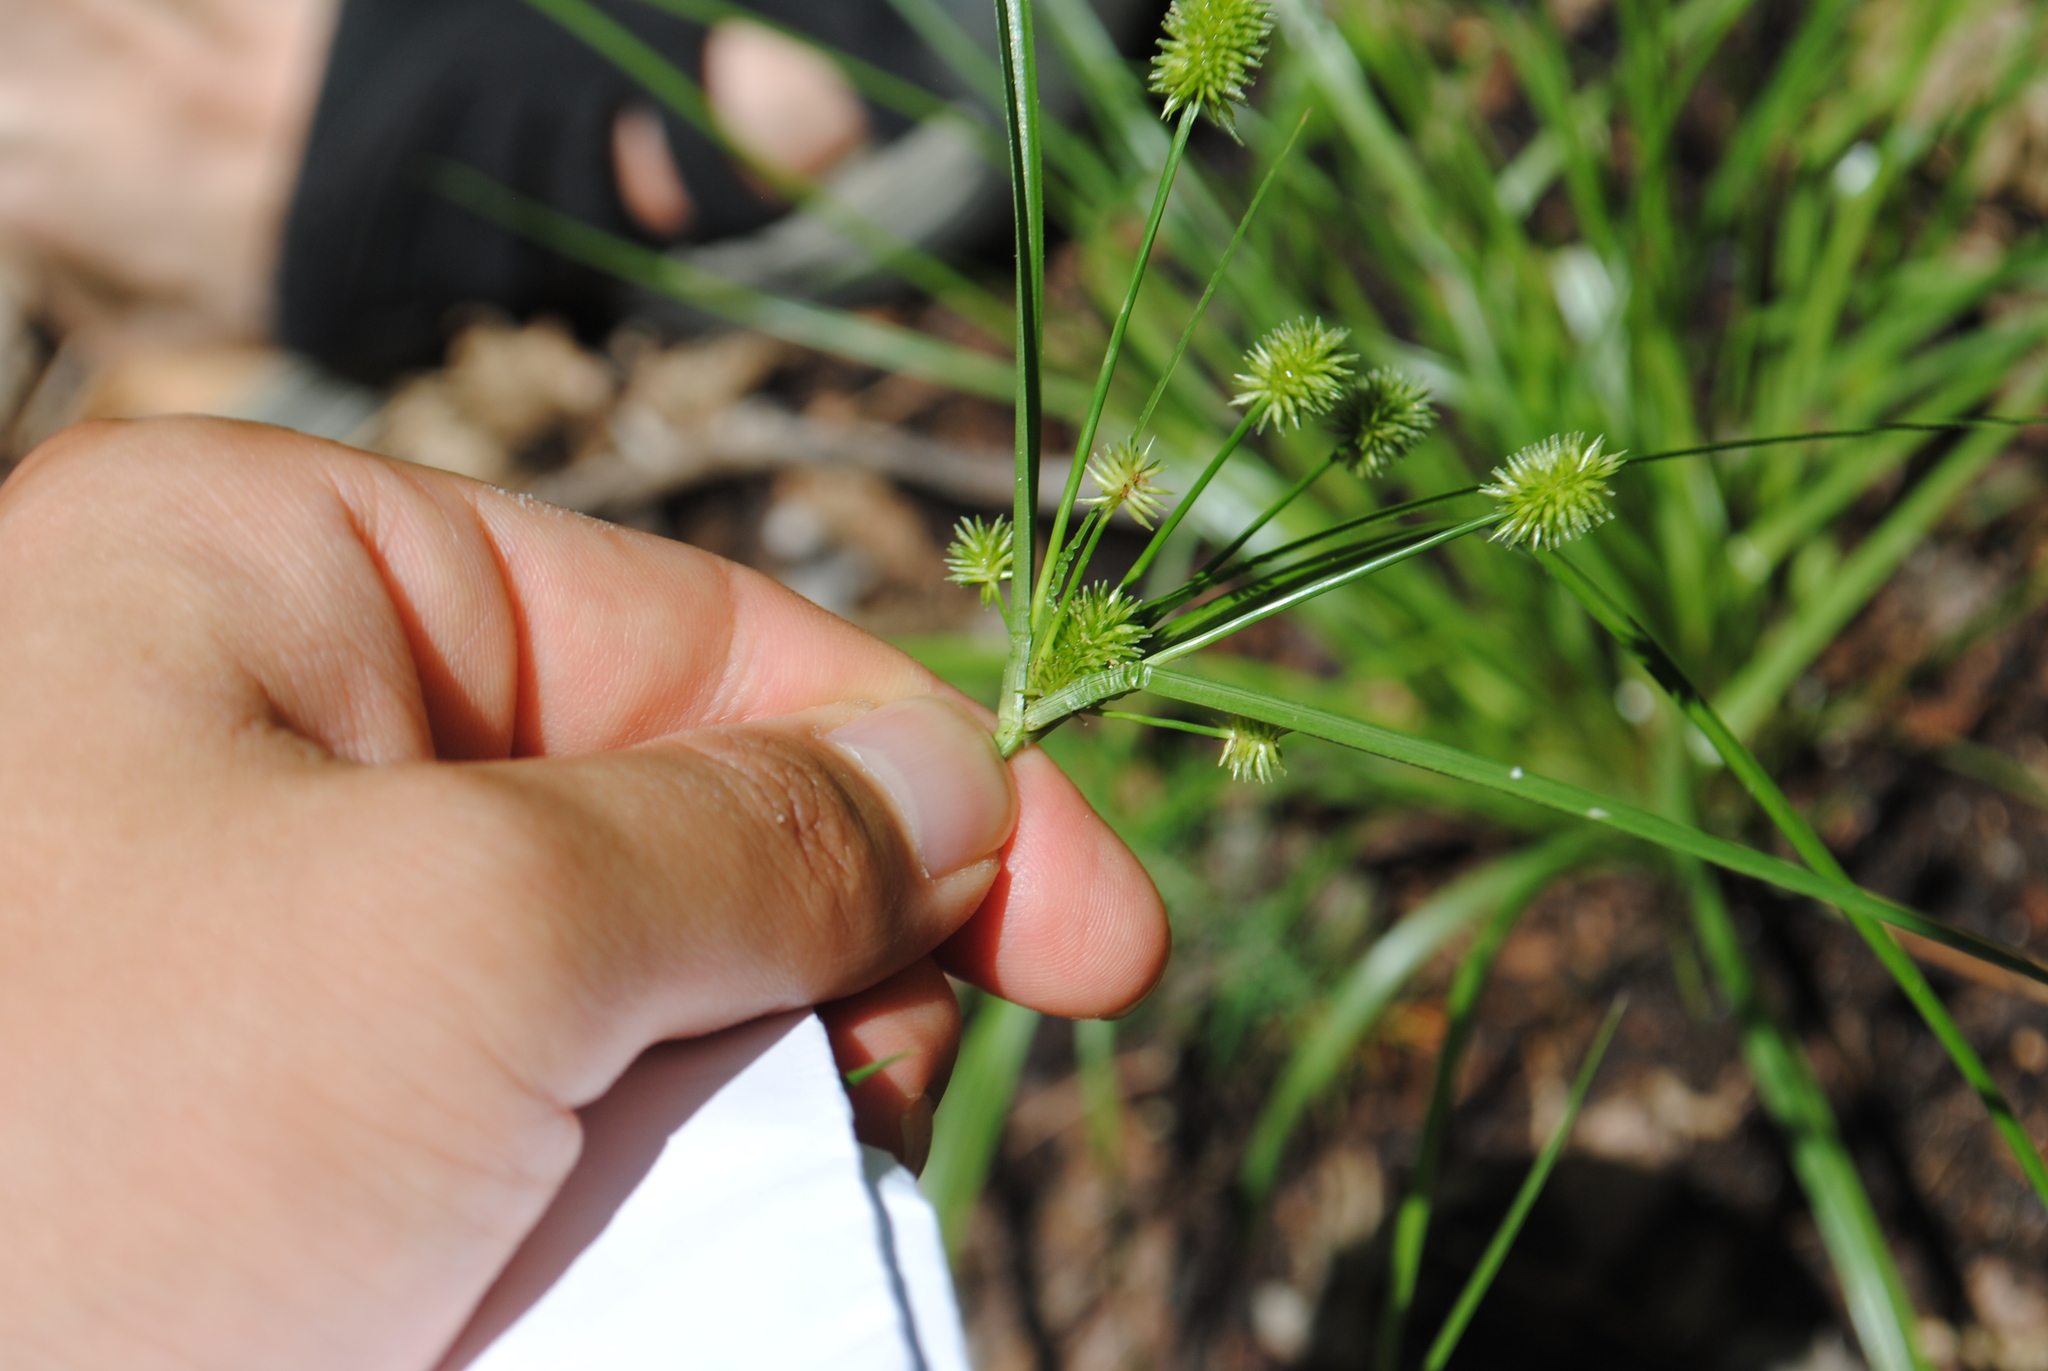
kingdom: Plantae
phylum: Tracheophyta
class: Liliopsida
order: Poales
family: Cyperaceae
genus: Cyperus
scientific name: Cyperus retrorsus
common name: Pinebarren flat sedge
